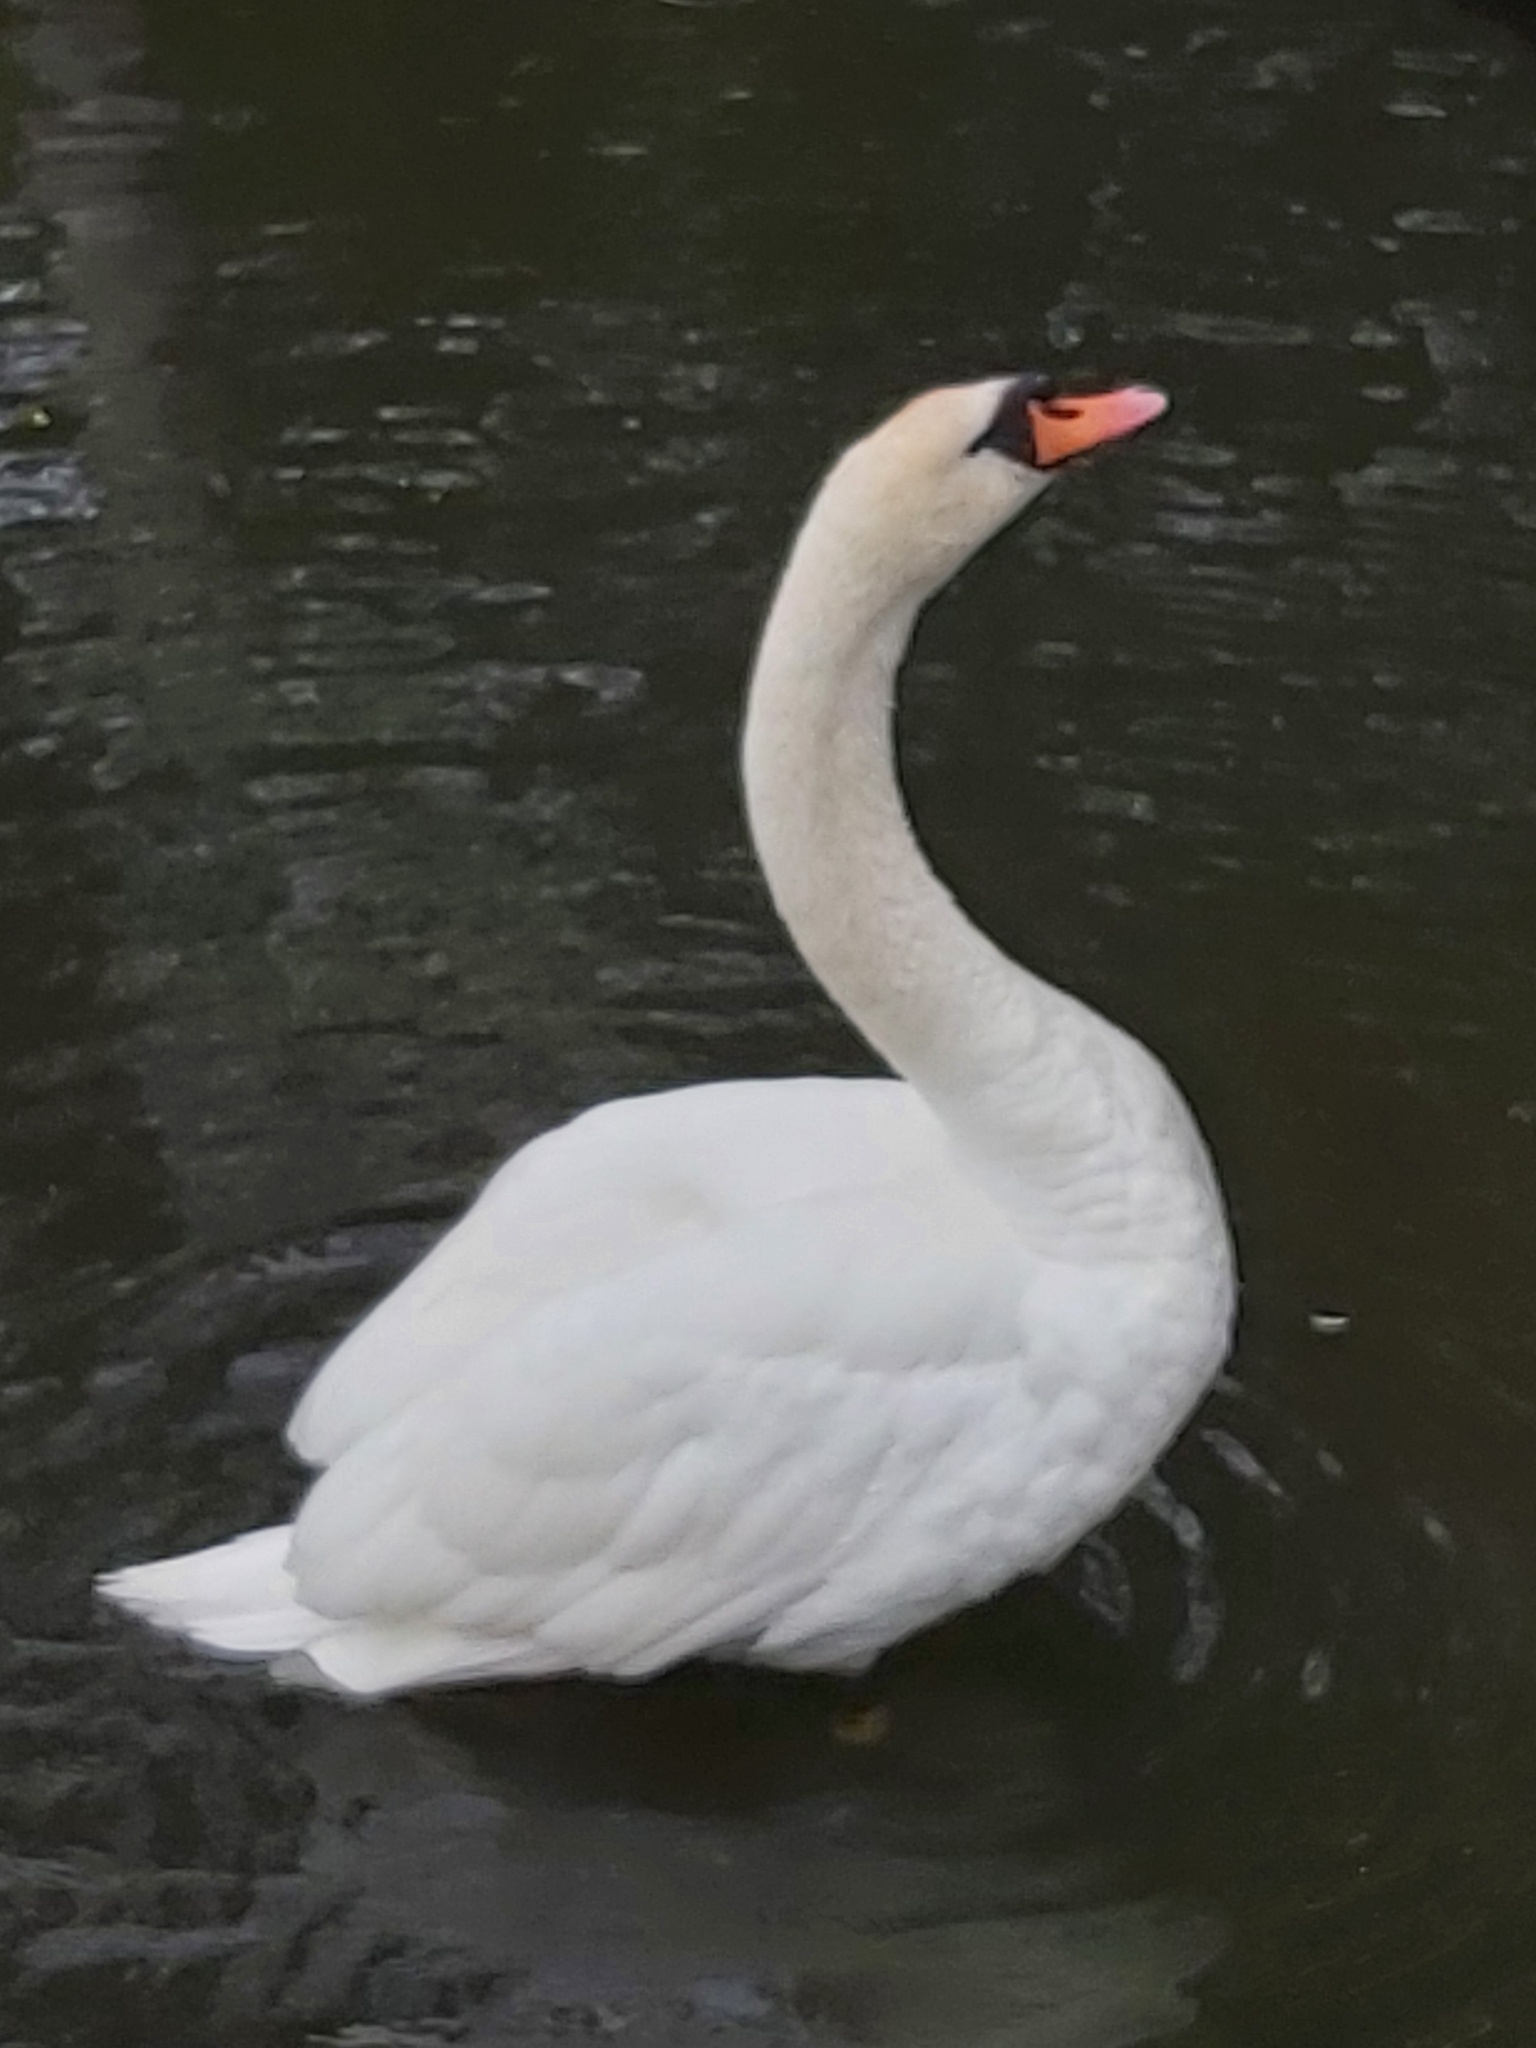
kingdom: Animalia
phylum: Chordata
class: Aves
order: Anseriformes
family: Anatidae
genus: Cygnus
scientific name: Cygnus olor
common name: Mute swan
